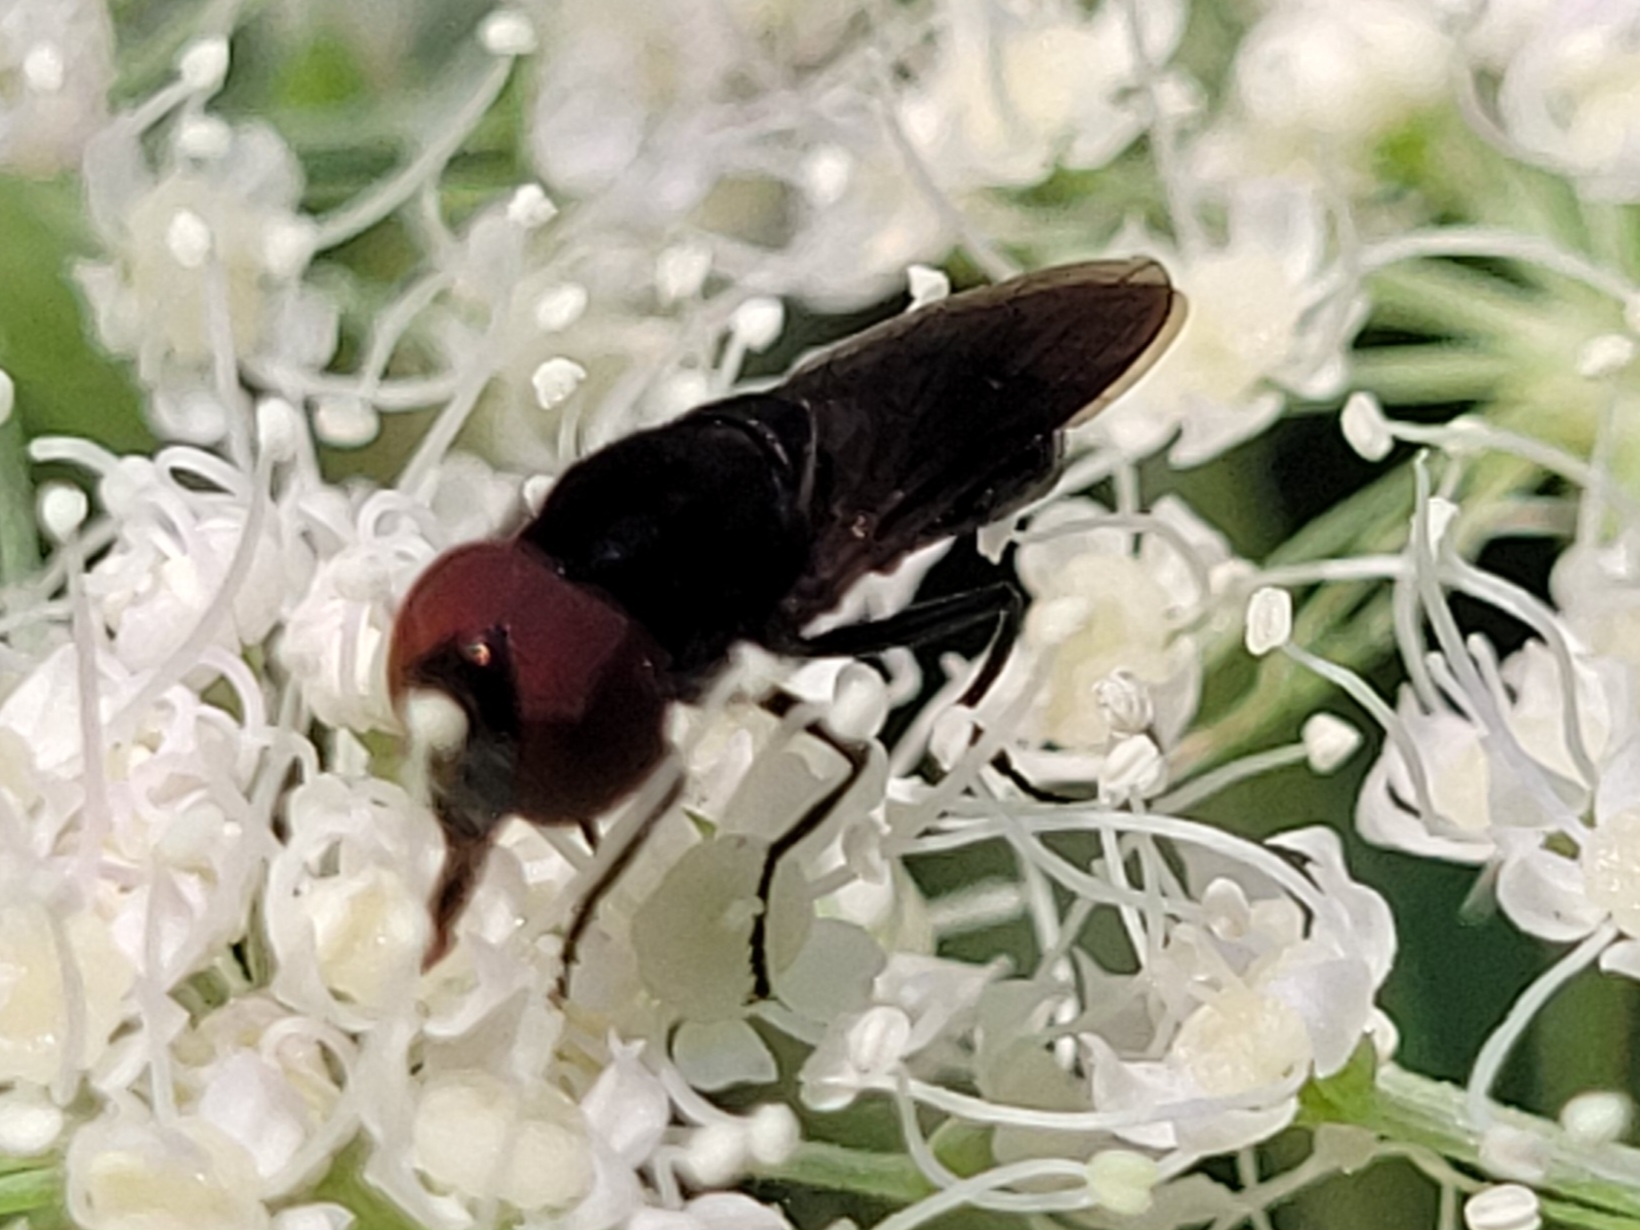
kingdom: Animalia
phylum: Arthropoda
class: Insecta
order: Diptera
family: Syrphidae
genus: Chrysogaster
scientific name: Chrysogaster solstitialis
